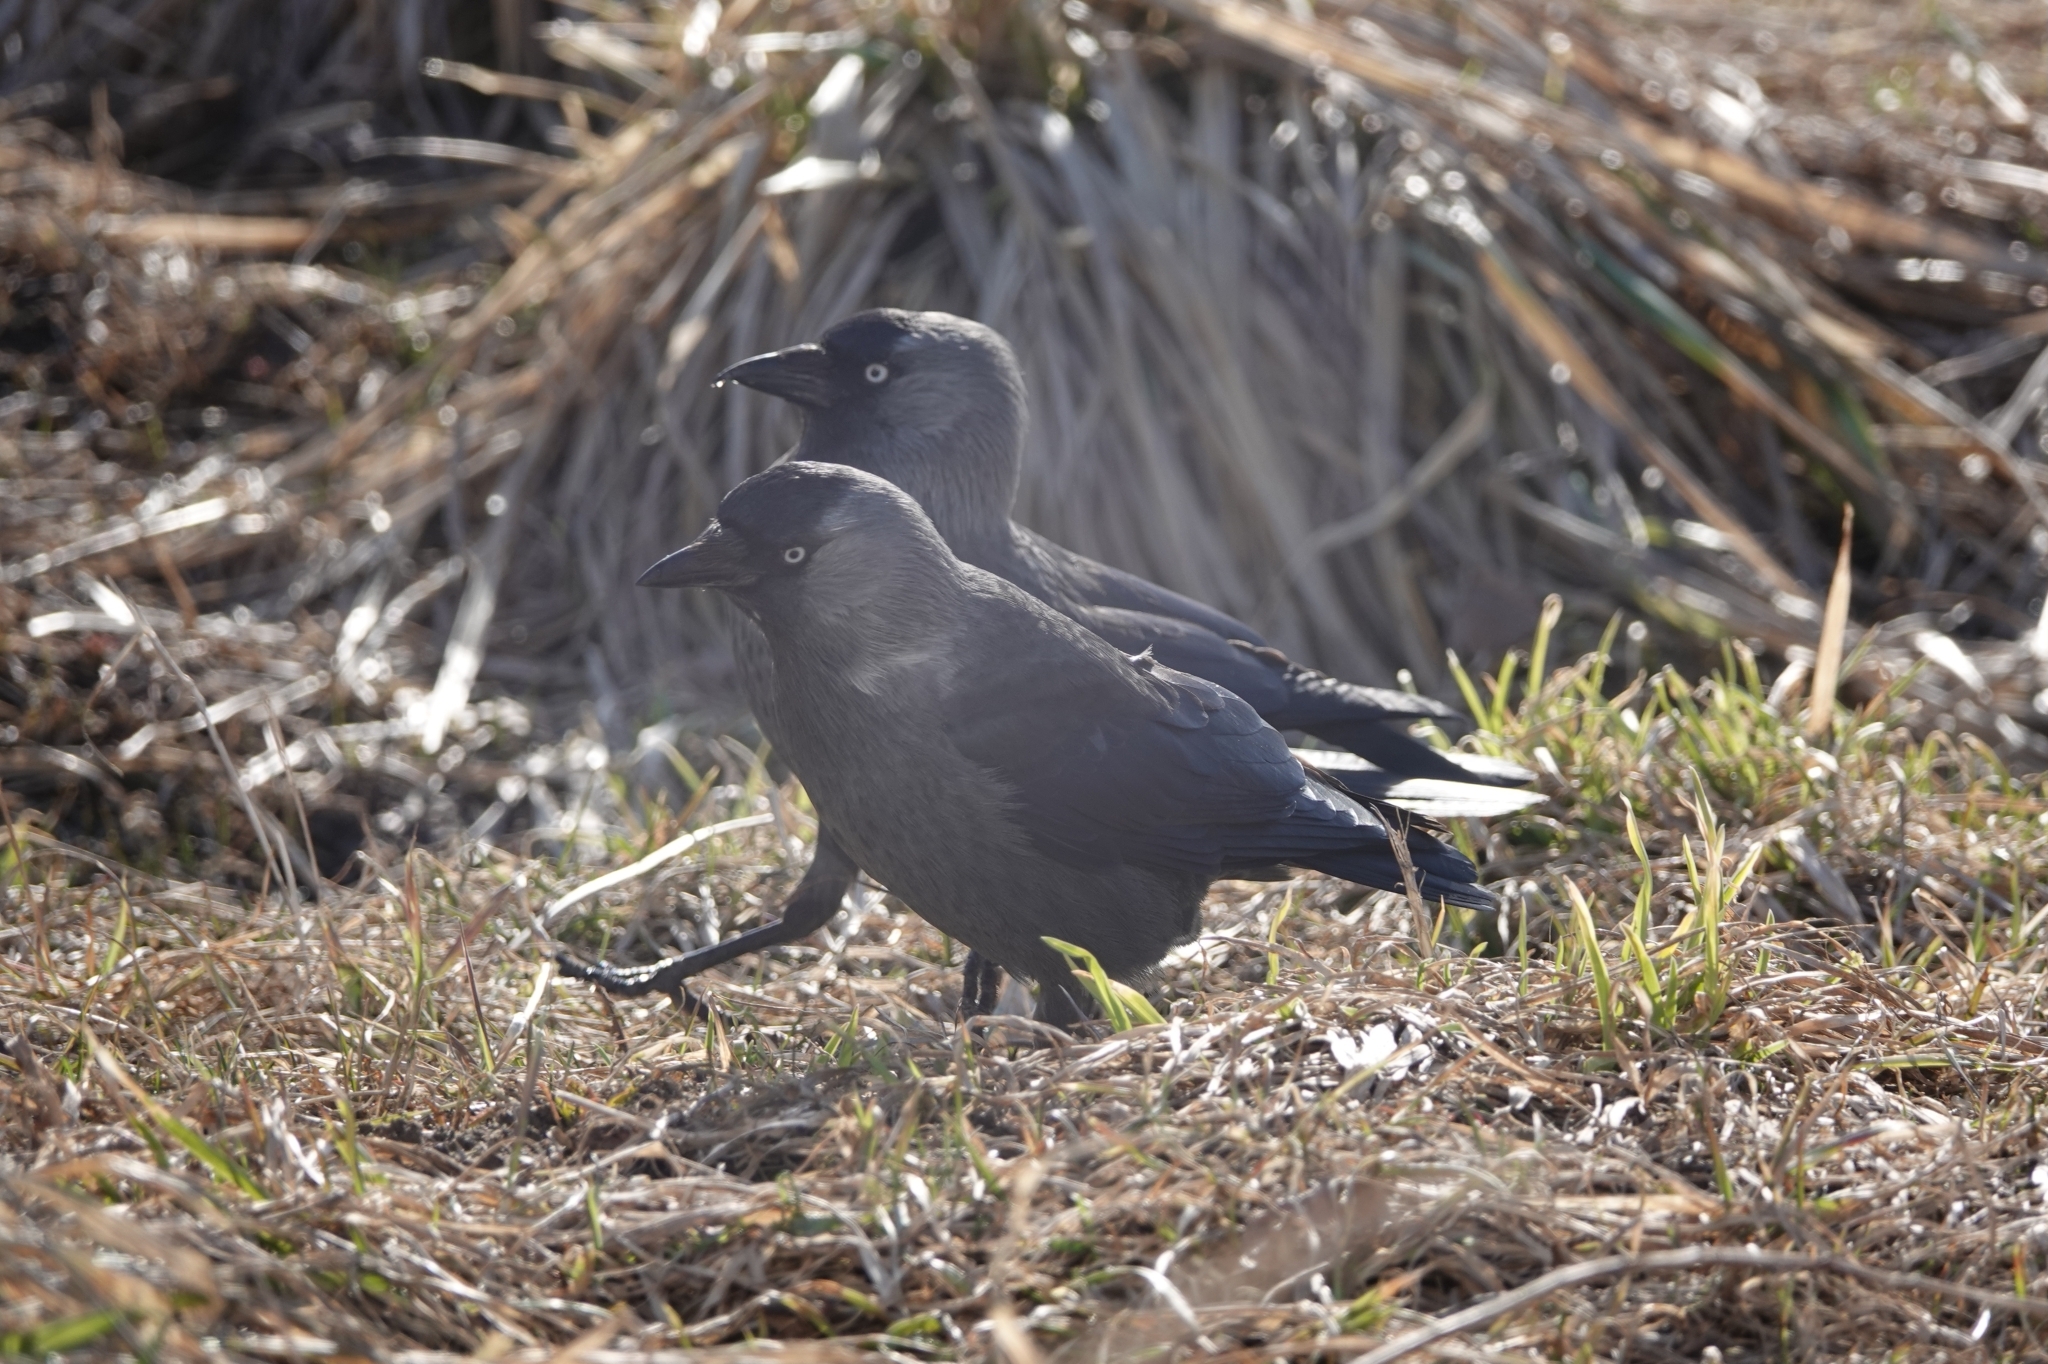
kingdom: Animalia
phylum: Chordata
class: Aves
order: Passeriformes
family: Corvidae
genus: Coloeus
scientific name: Coloeus monedula
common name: Western jackdaw
